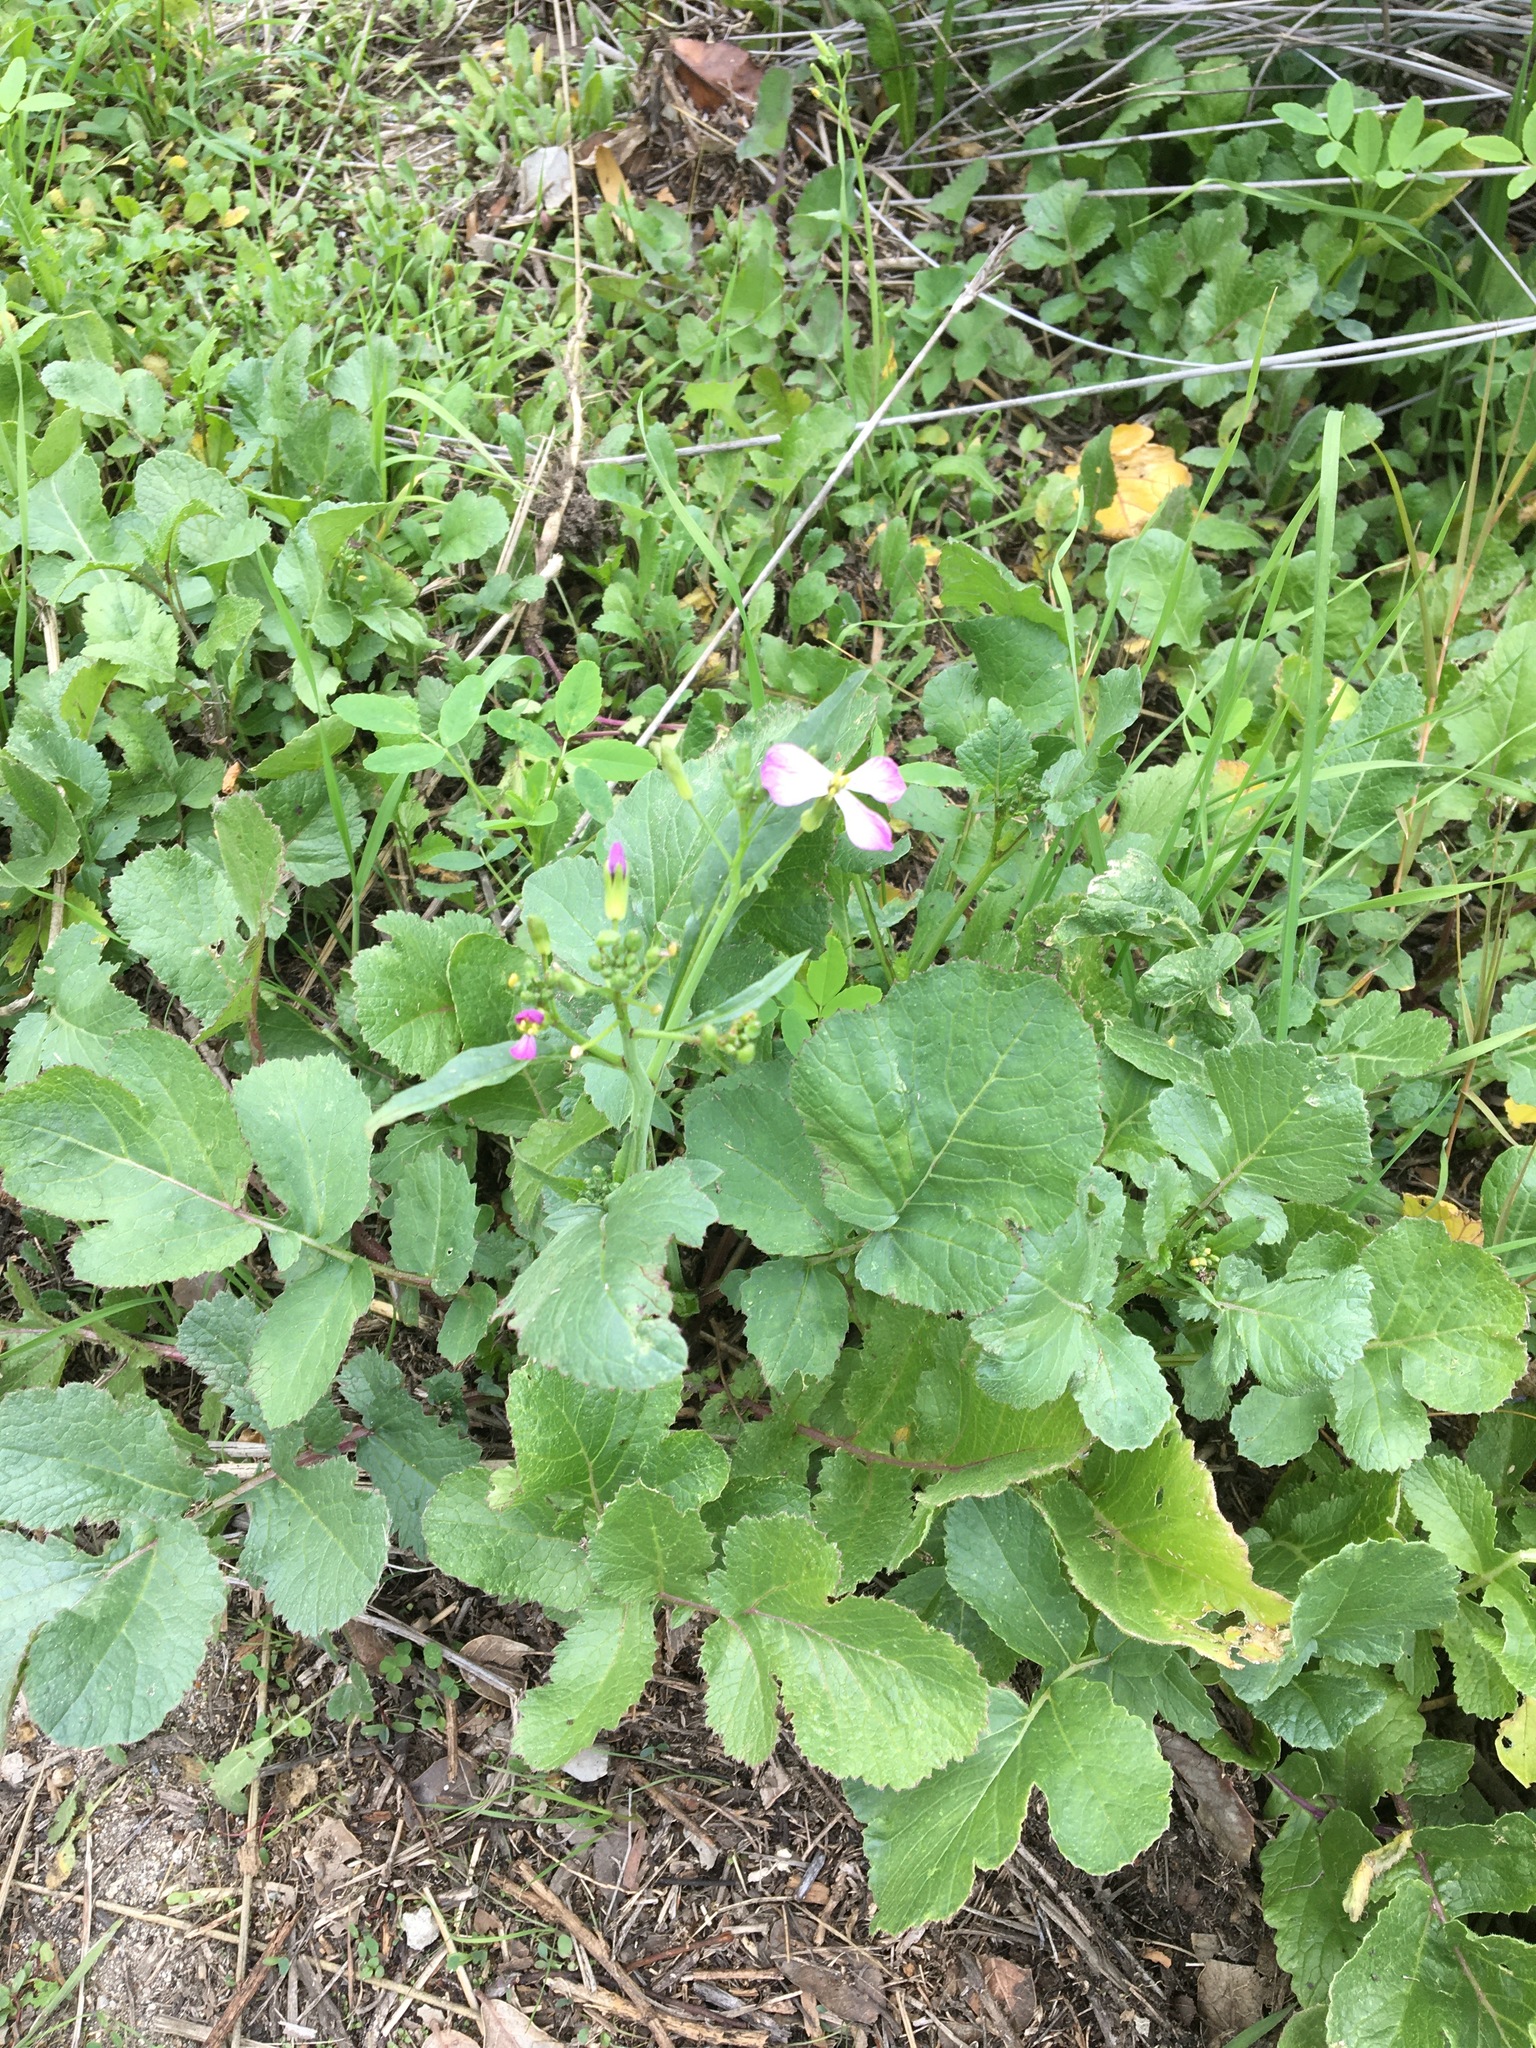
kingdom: Plantae
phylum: Tracheophyta
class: Magnoliopsida
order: Brassicales
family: Brassicaceae
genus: Raphanus
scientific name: Raphanus sativus
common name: Cultivated radish
